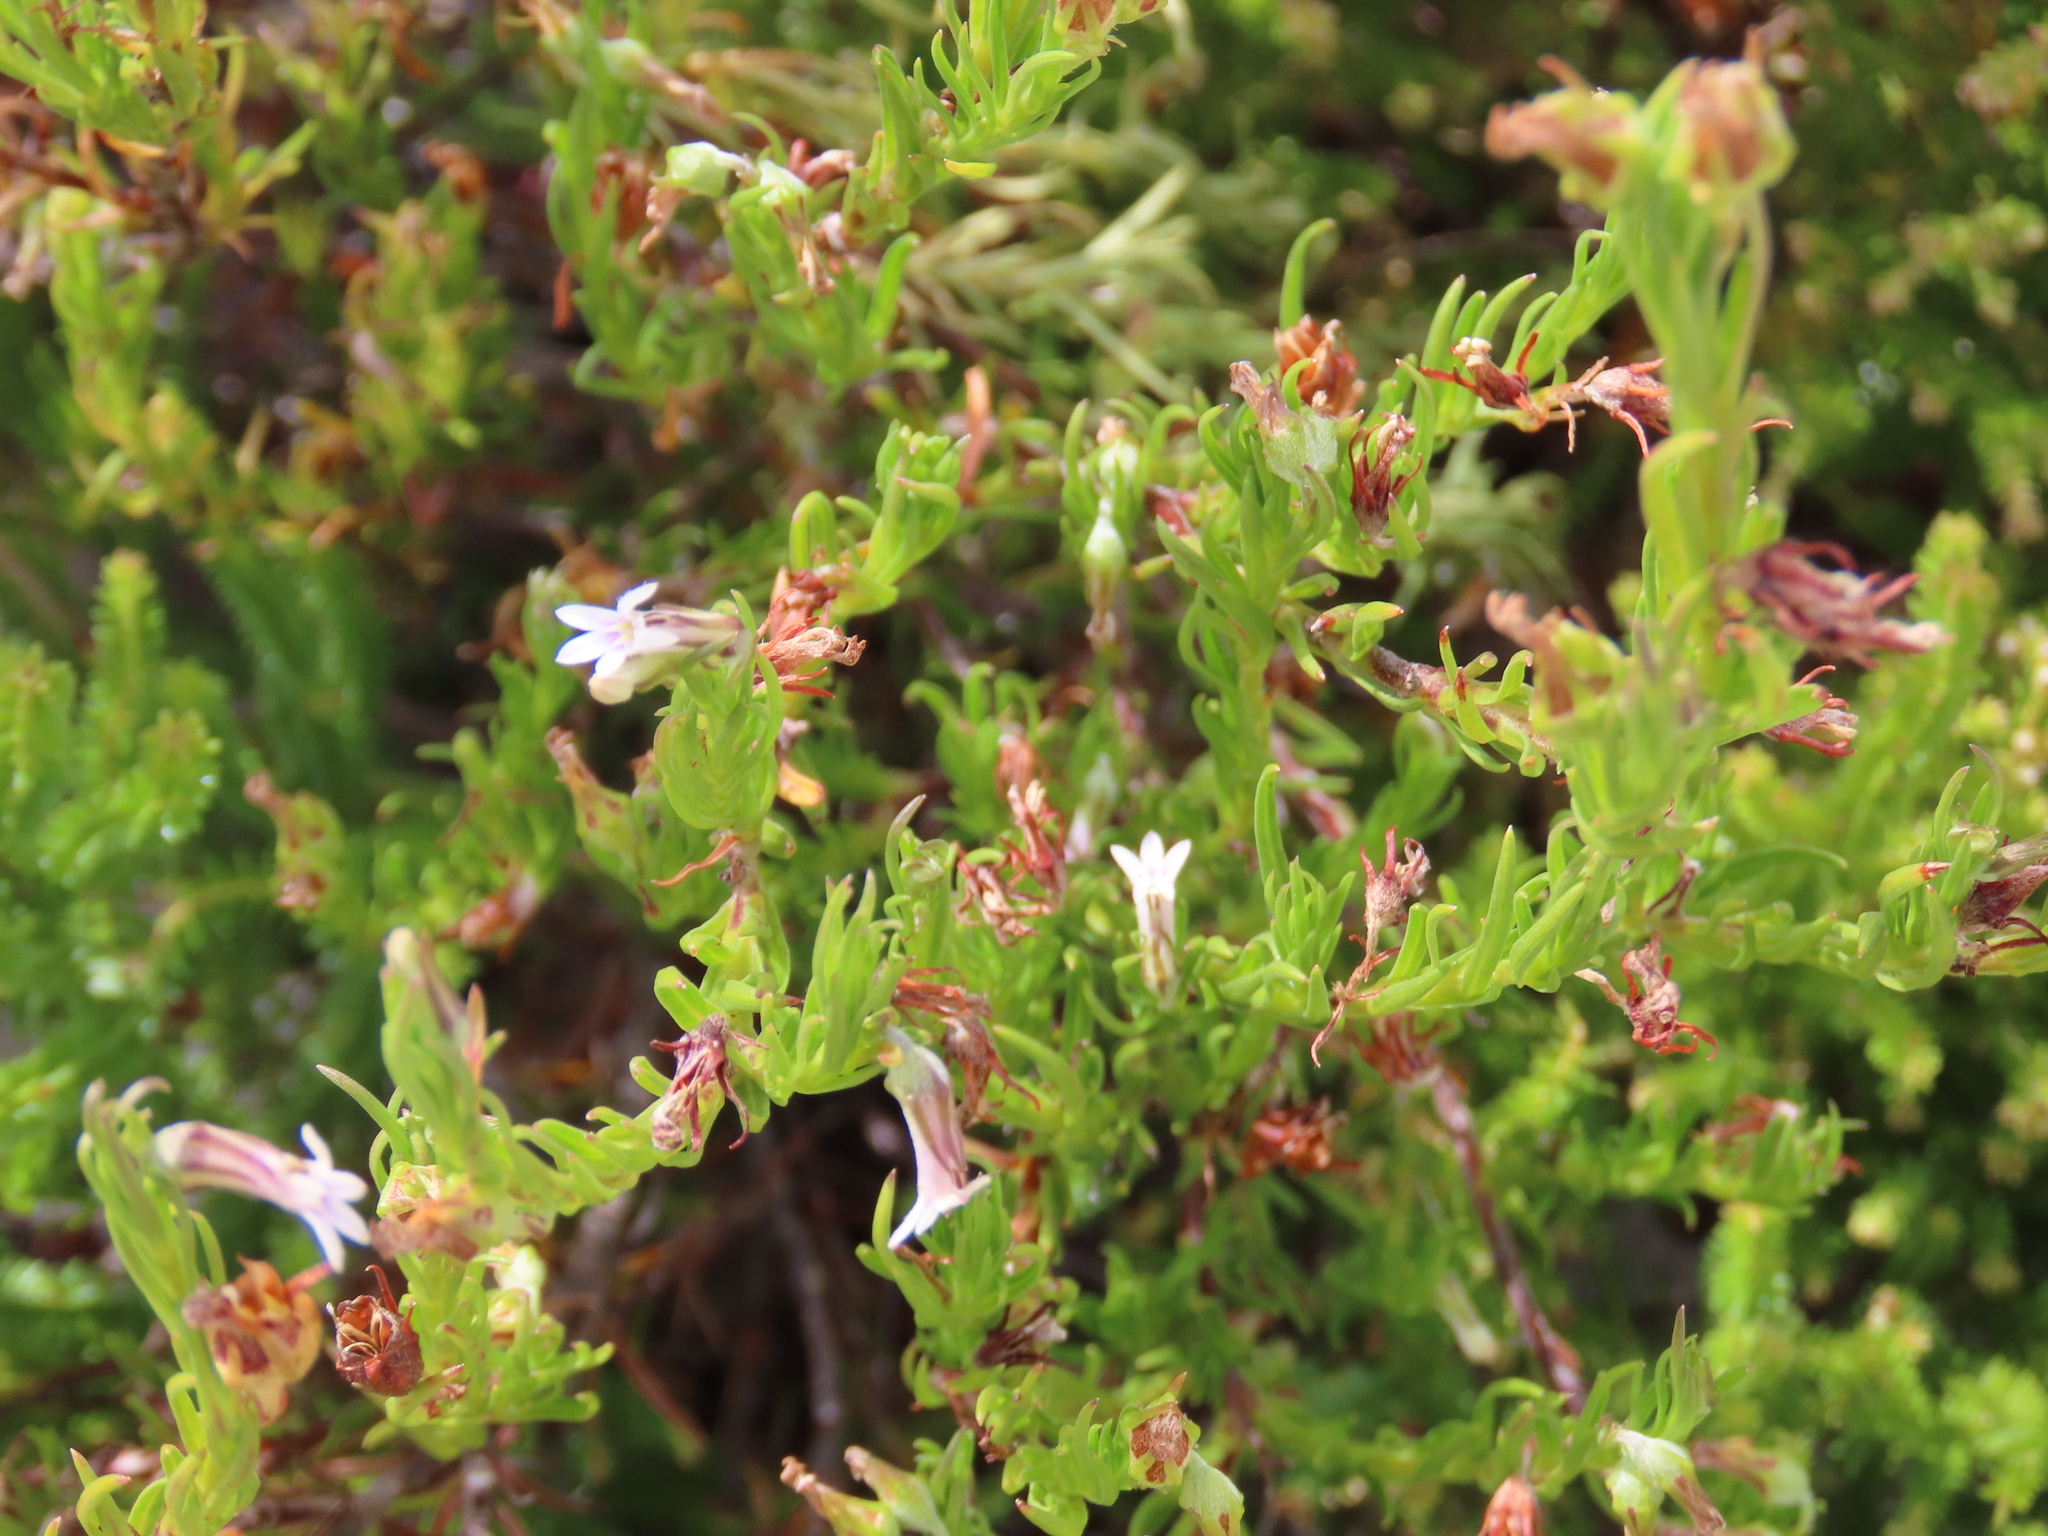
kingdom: Plantae
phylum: Tracheophyta
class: Magnoliopsida
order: Asterales
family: Campanulaceae
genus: Lobelia
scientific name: Lobelia pinifolia
